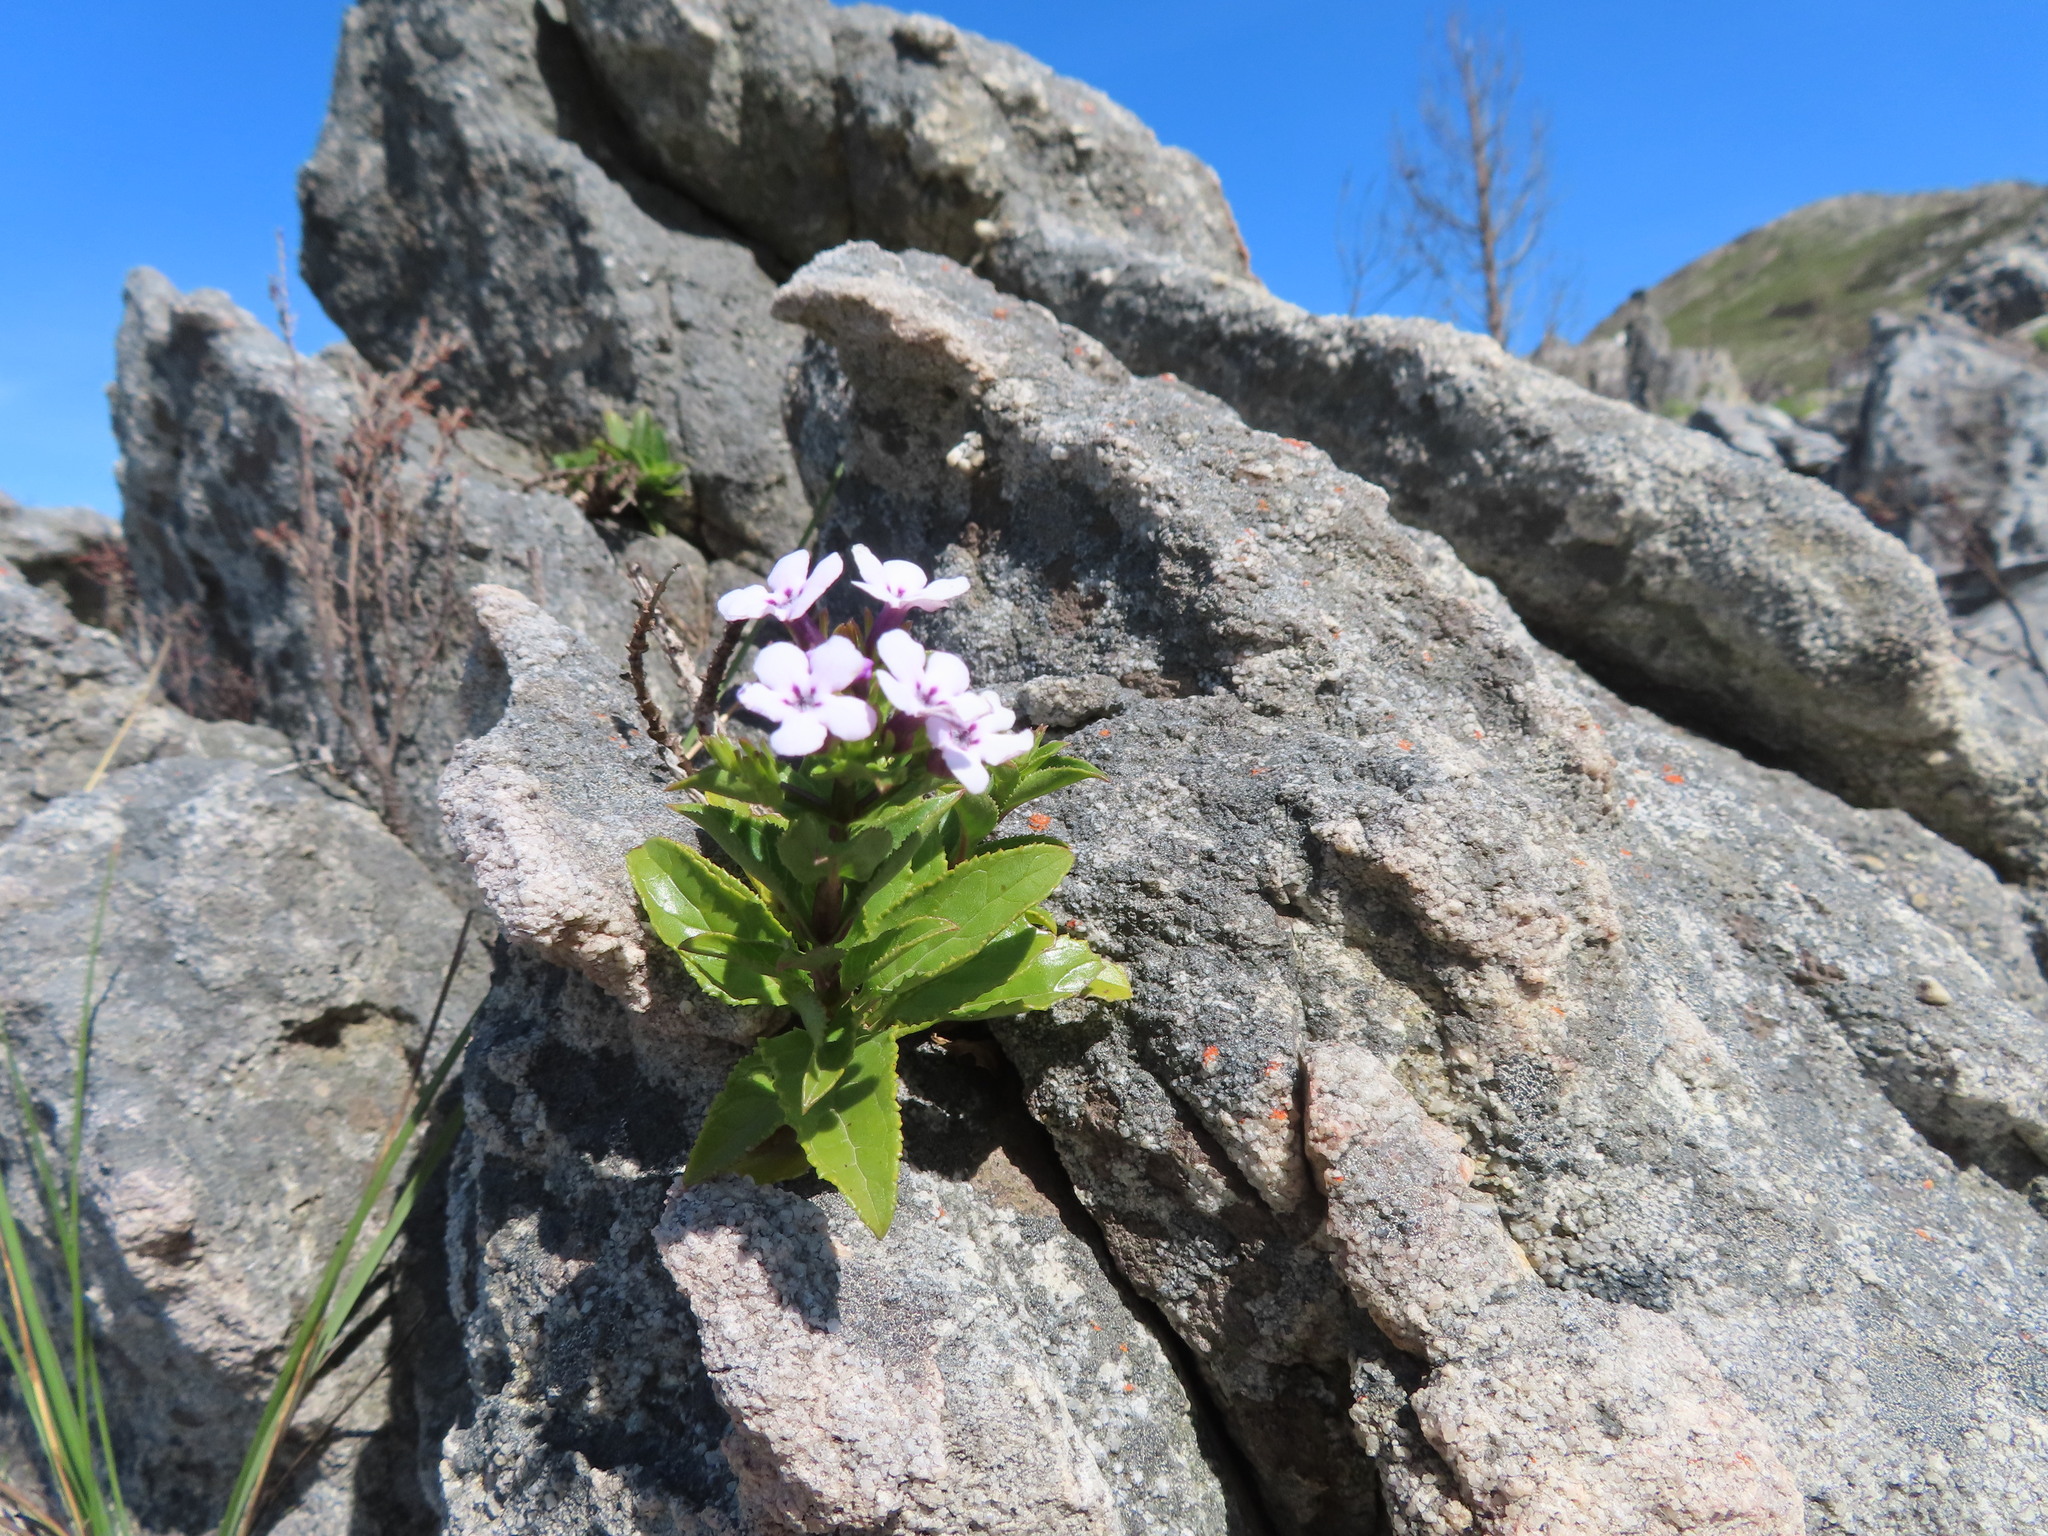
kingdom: Plantae
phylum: Tracheophyta
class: Magnoliopsida
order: Lamiales
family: Scrophulariaceae
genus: Teedia
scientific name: Teedia lucida
